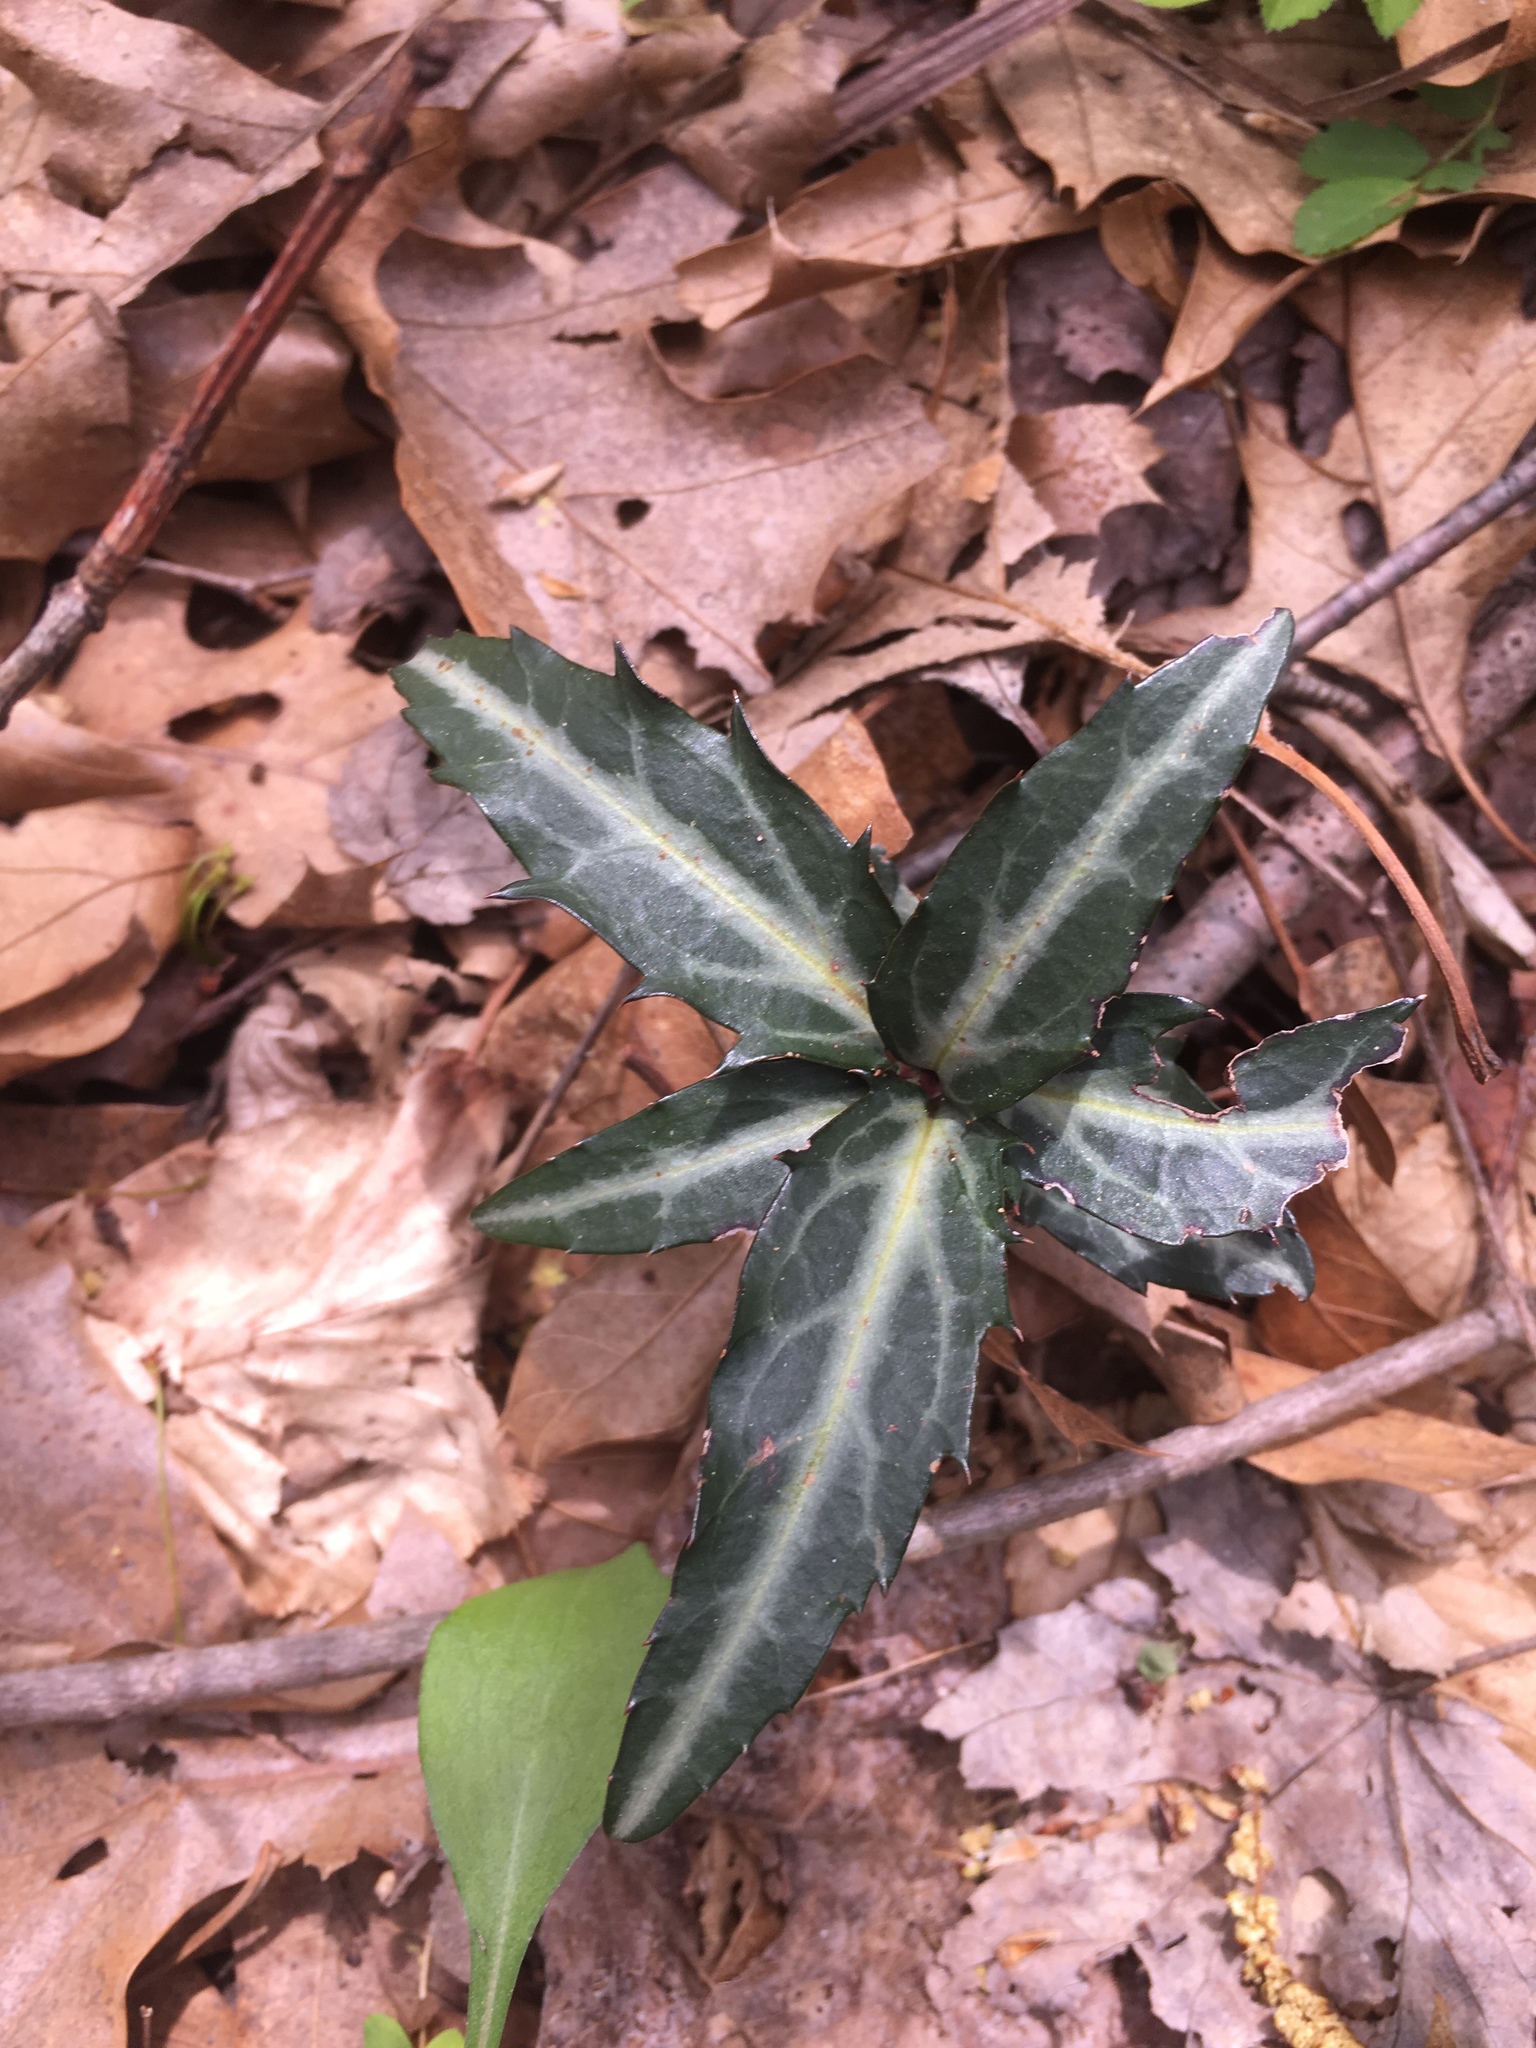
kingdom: Plantae
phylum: Tracheophyta
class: Magnoliopsida
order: Ericales
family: Ericaceae
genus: Chimaphila
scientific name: Chimaphila maculata
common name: Spotted pipsissewa
